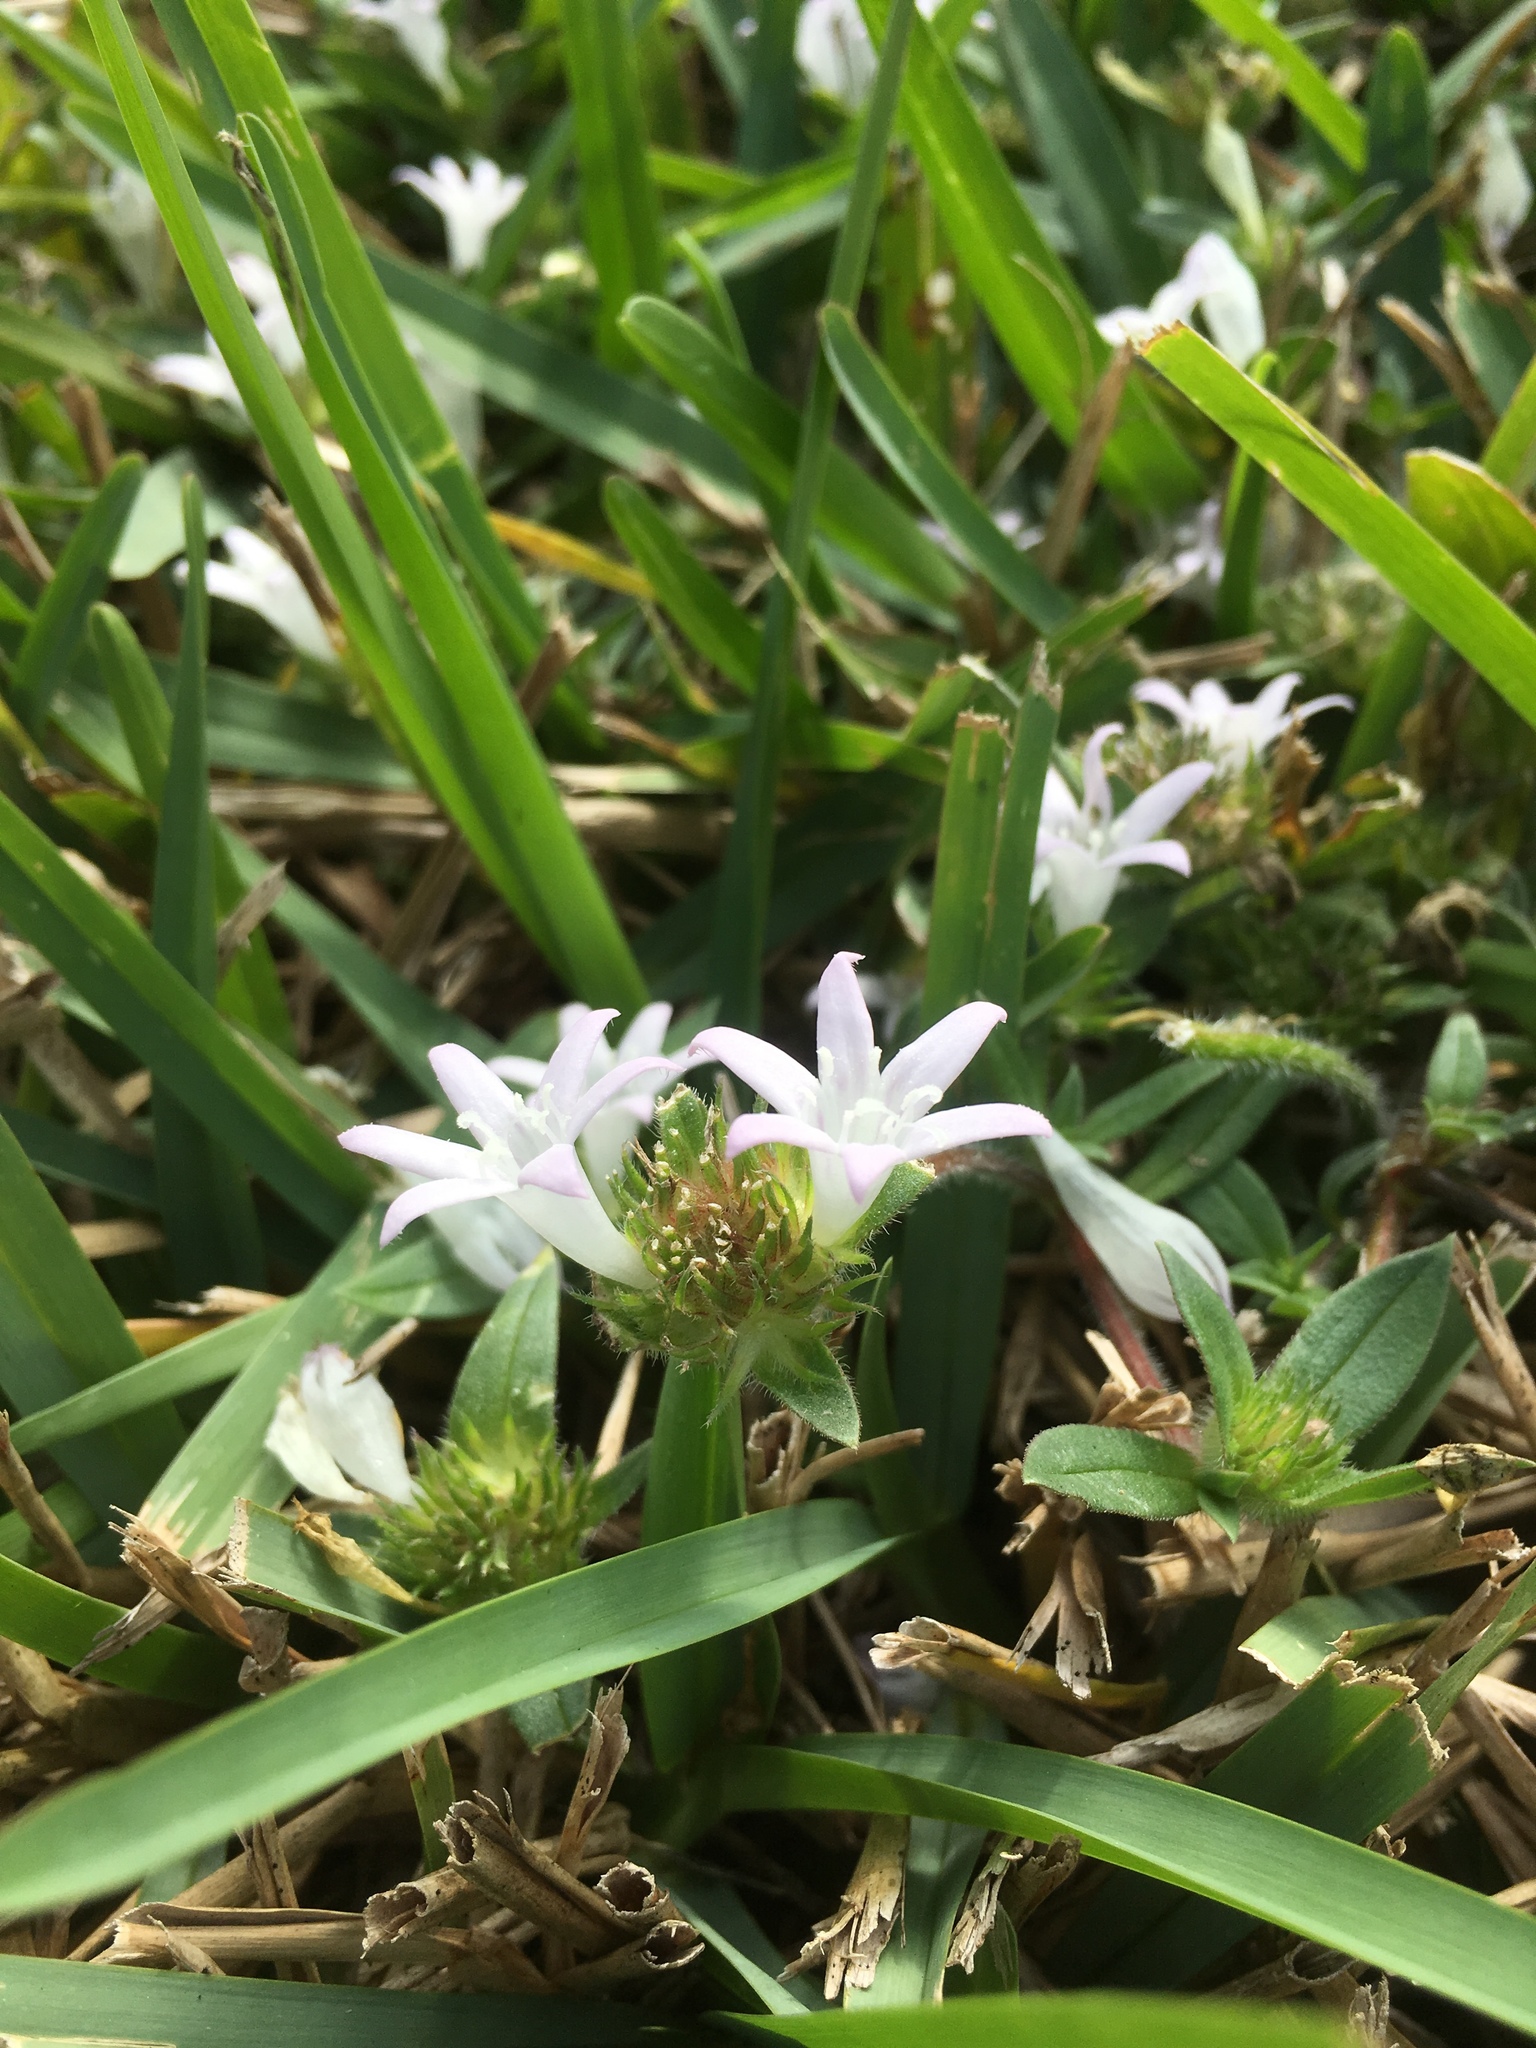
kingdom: Plantae
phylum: Tracheophyta
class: Magnoliopsida
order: Gentianales
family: Rubiaceae
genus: Richardia
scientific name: Richardia grandiflora
